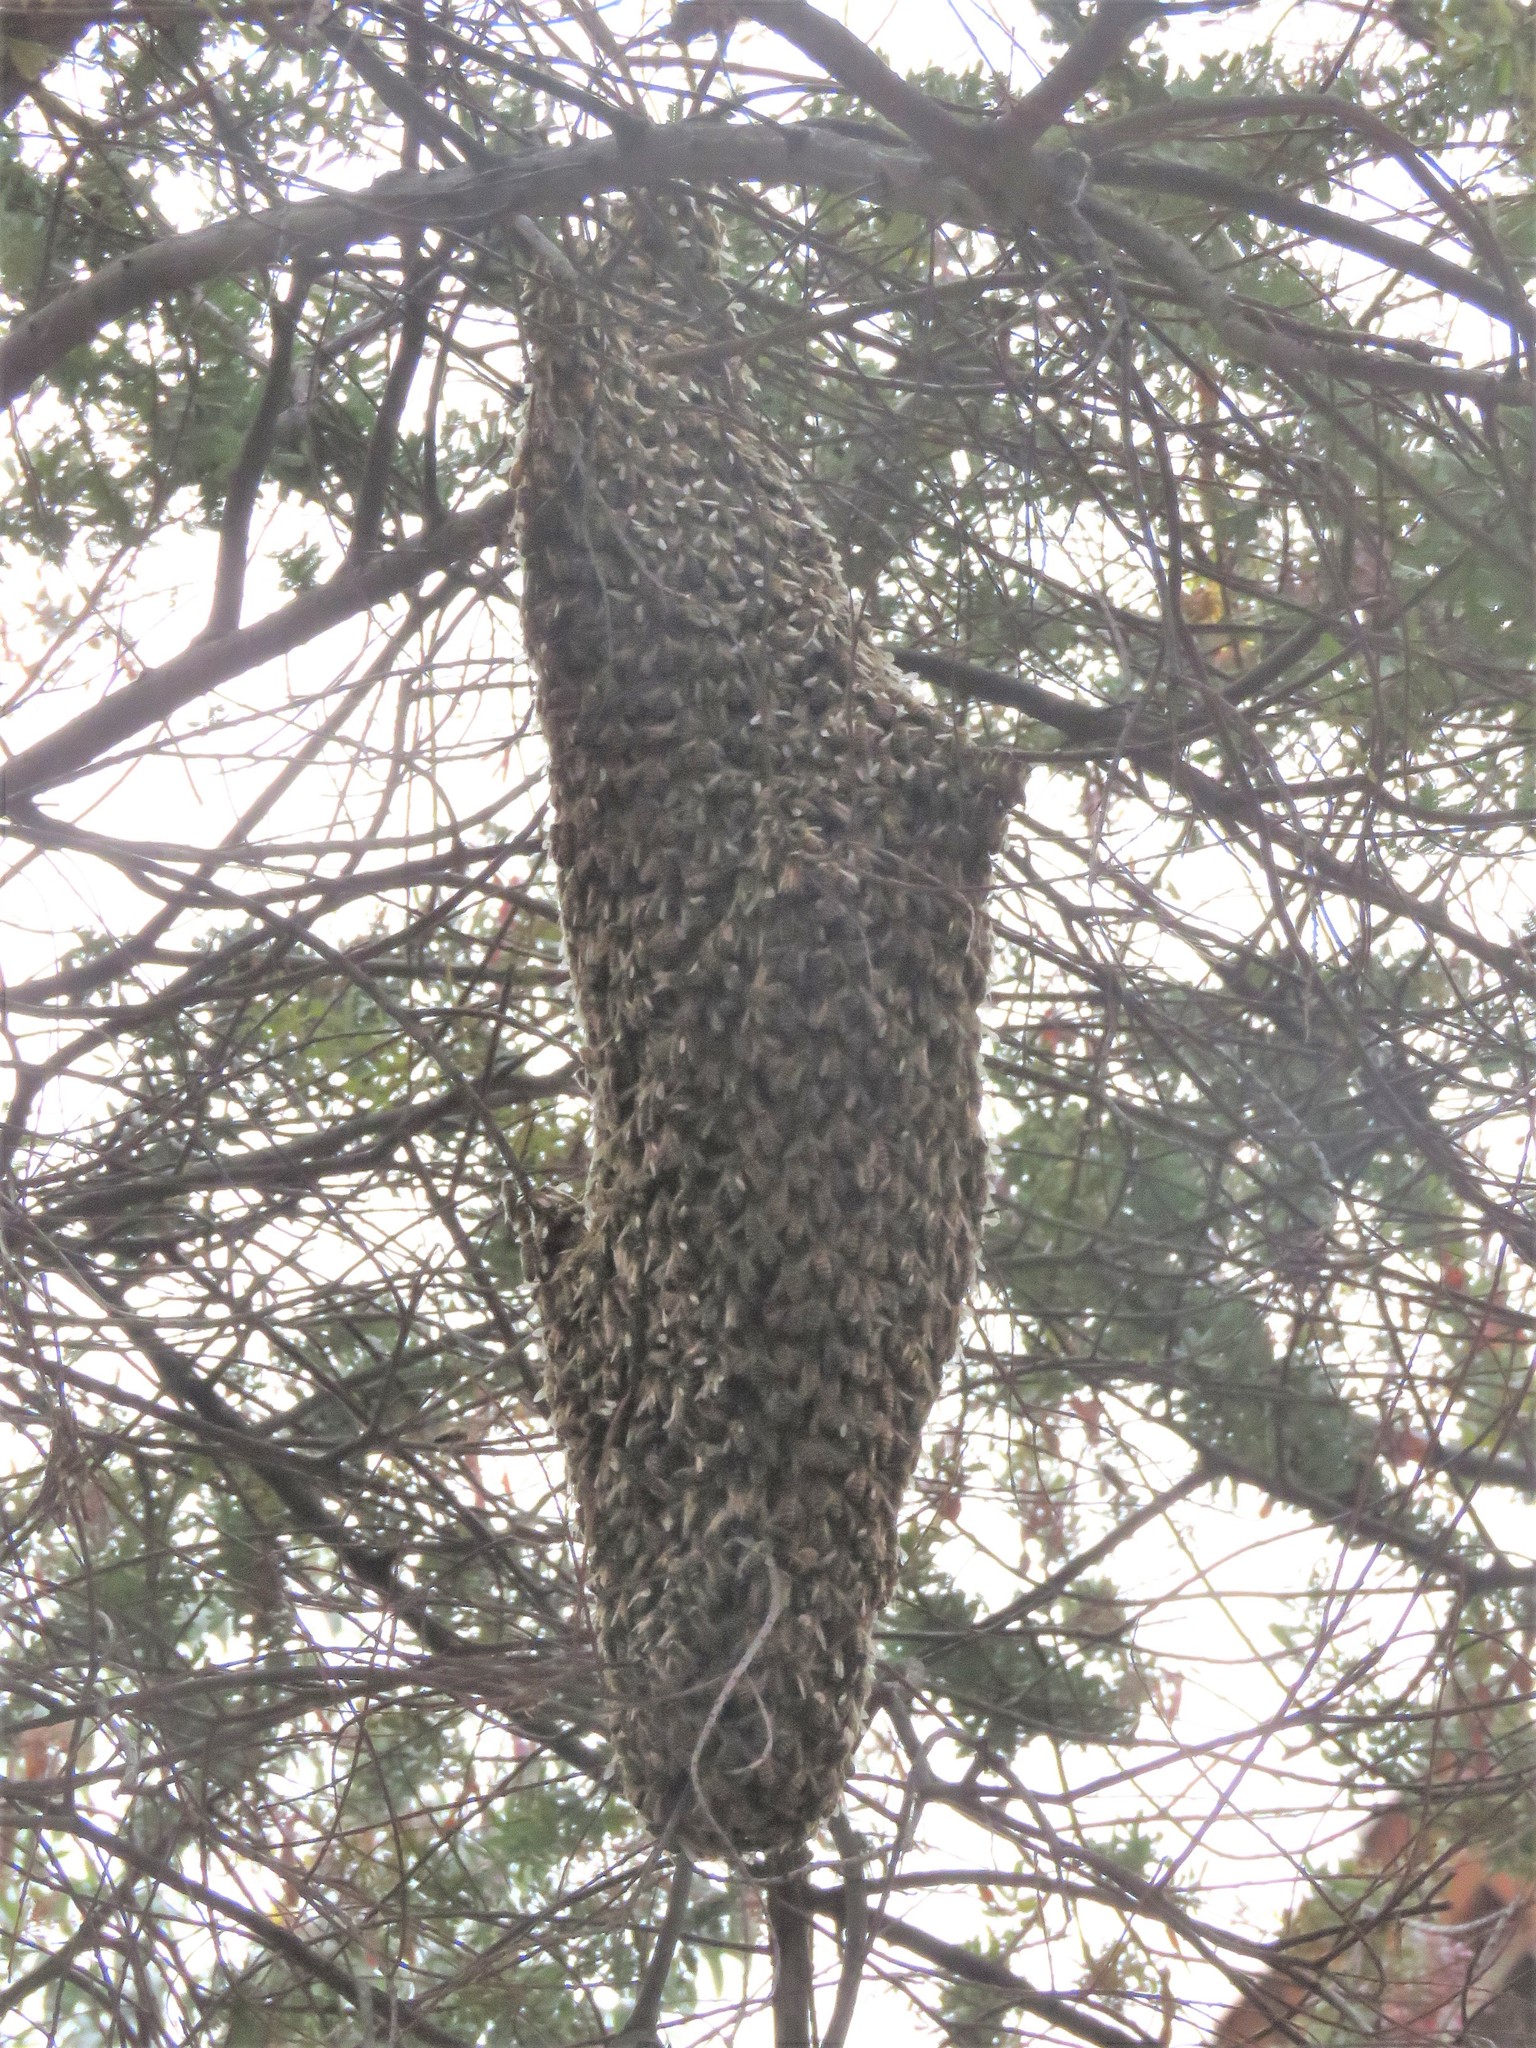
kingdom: Animalia
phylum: Arthropoda
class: Insecta
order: Hymenoptera
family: Apidae
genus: Apis
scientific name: Apis mellifera
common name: Honey bee
